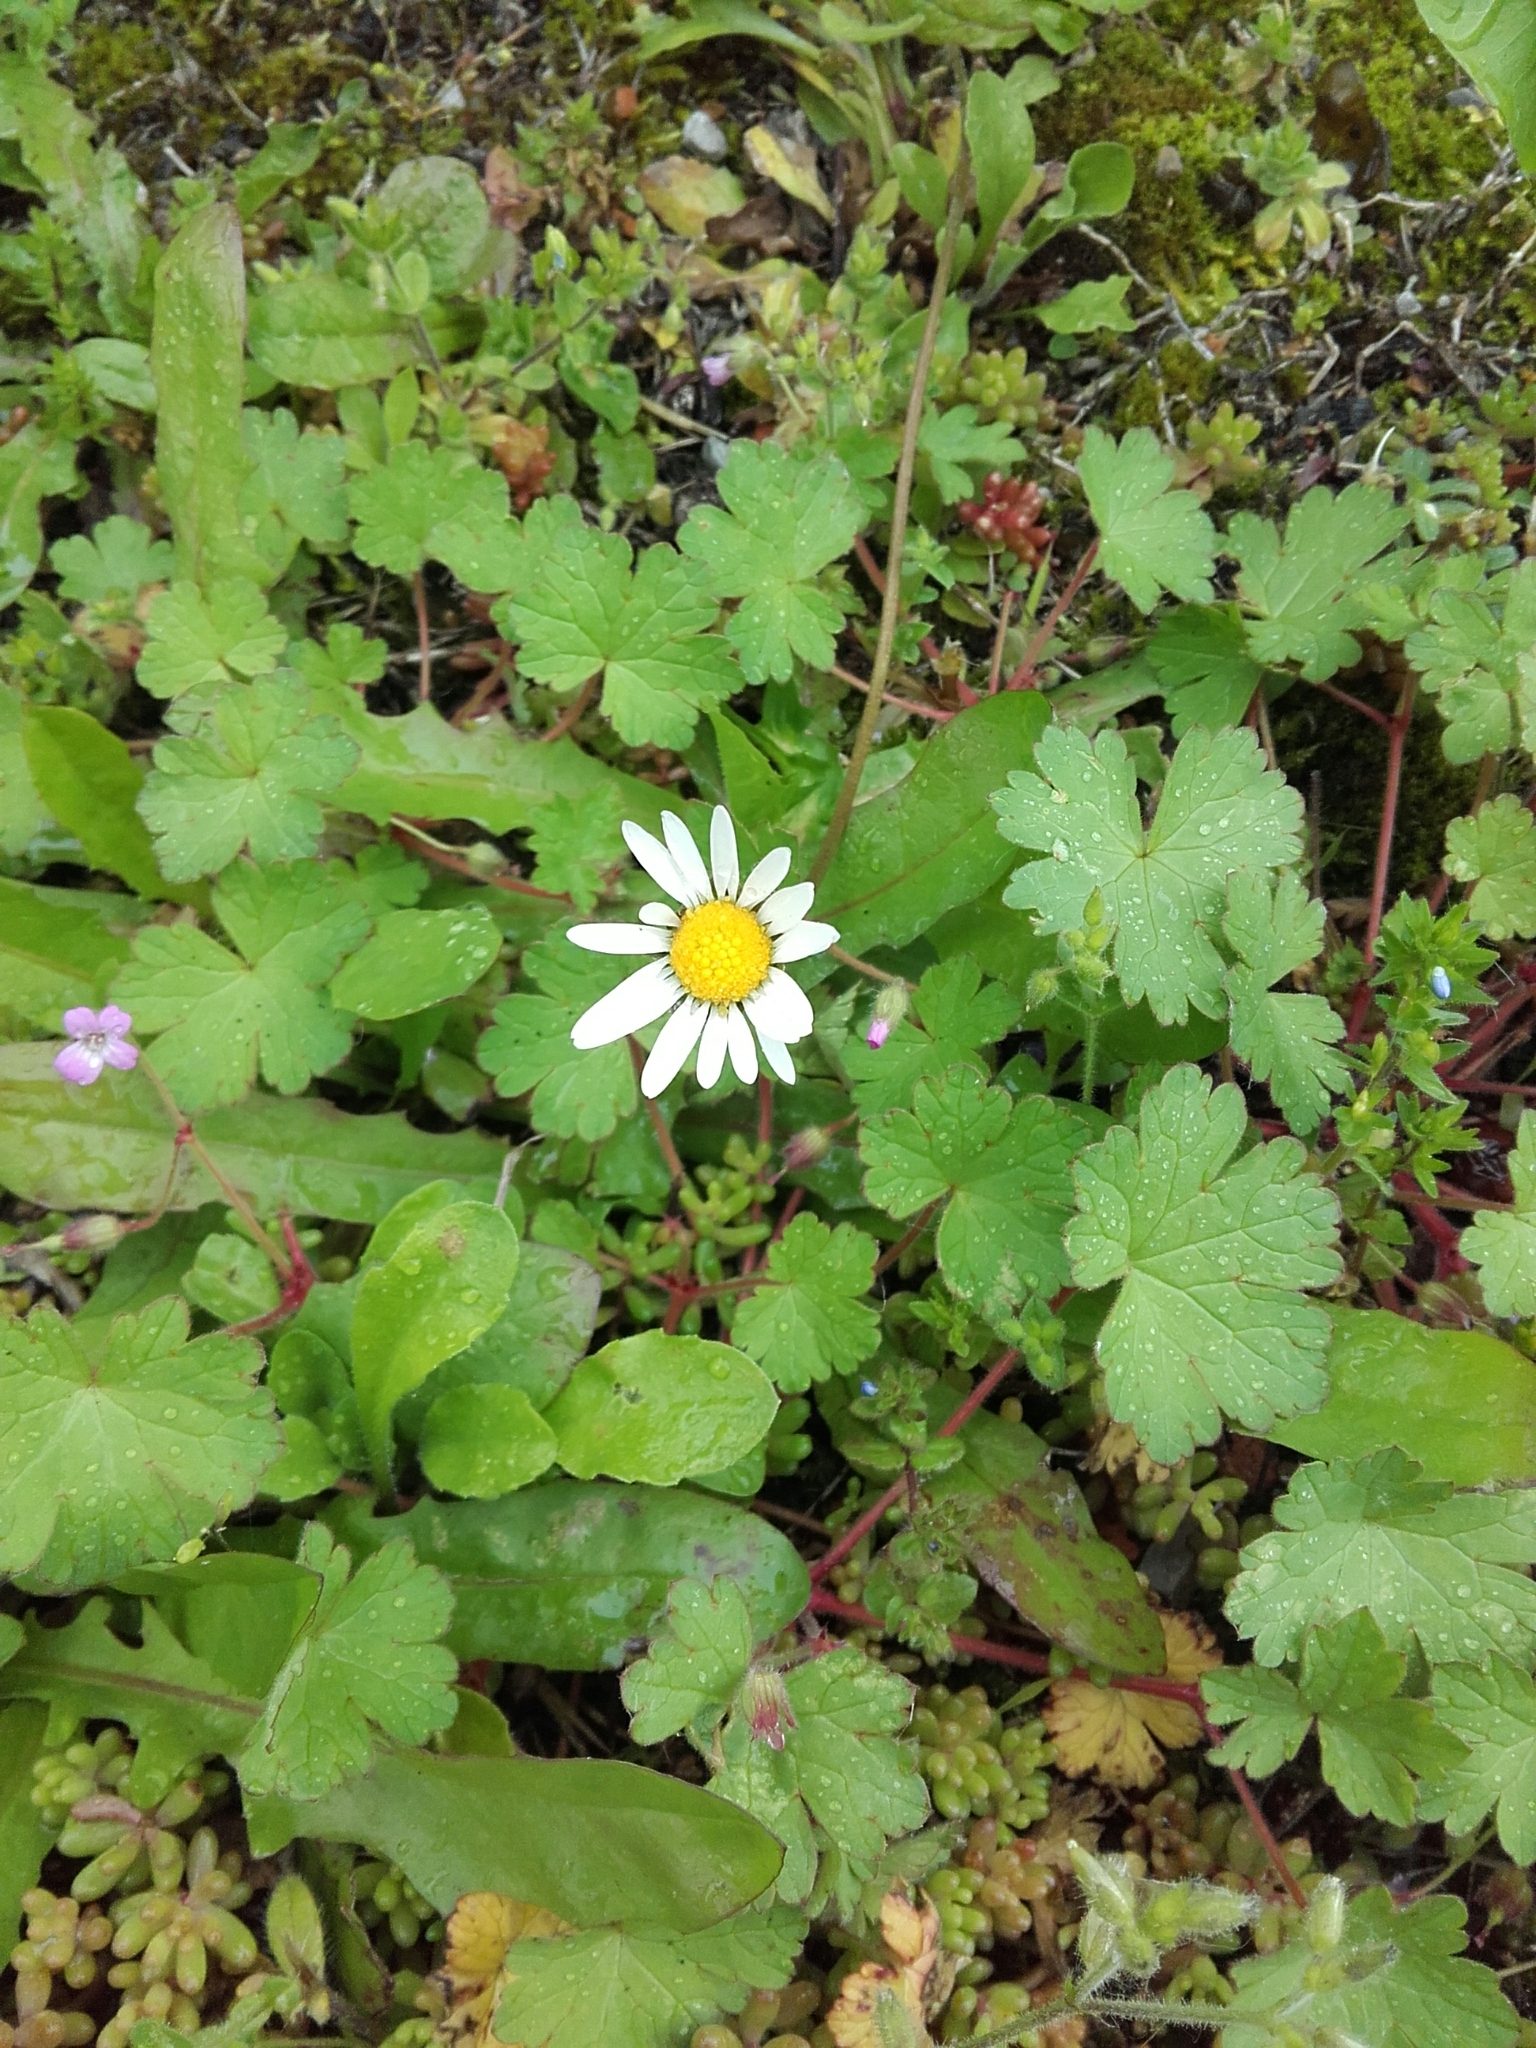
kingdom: Plantae
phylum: Tracheophyta
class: Magnoliopsida
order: Asterales
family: Asteraceae
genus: Bellis
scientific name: Bellis perennis
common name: Lawndaisy
